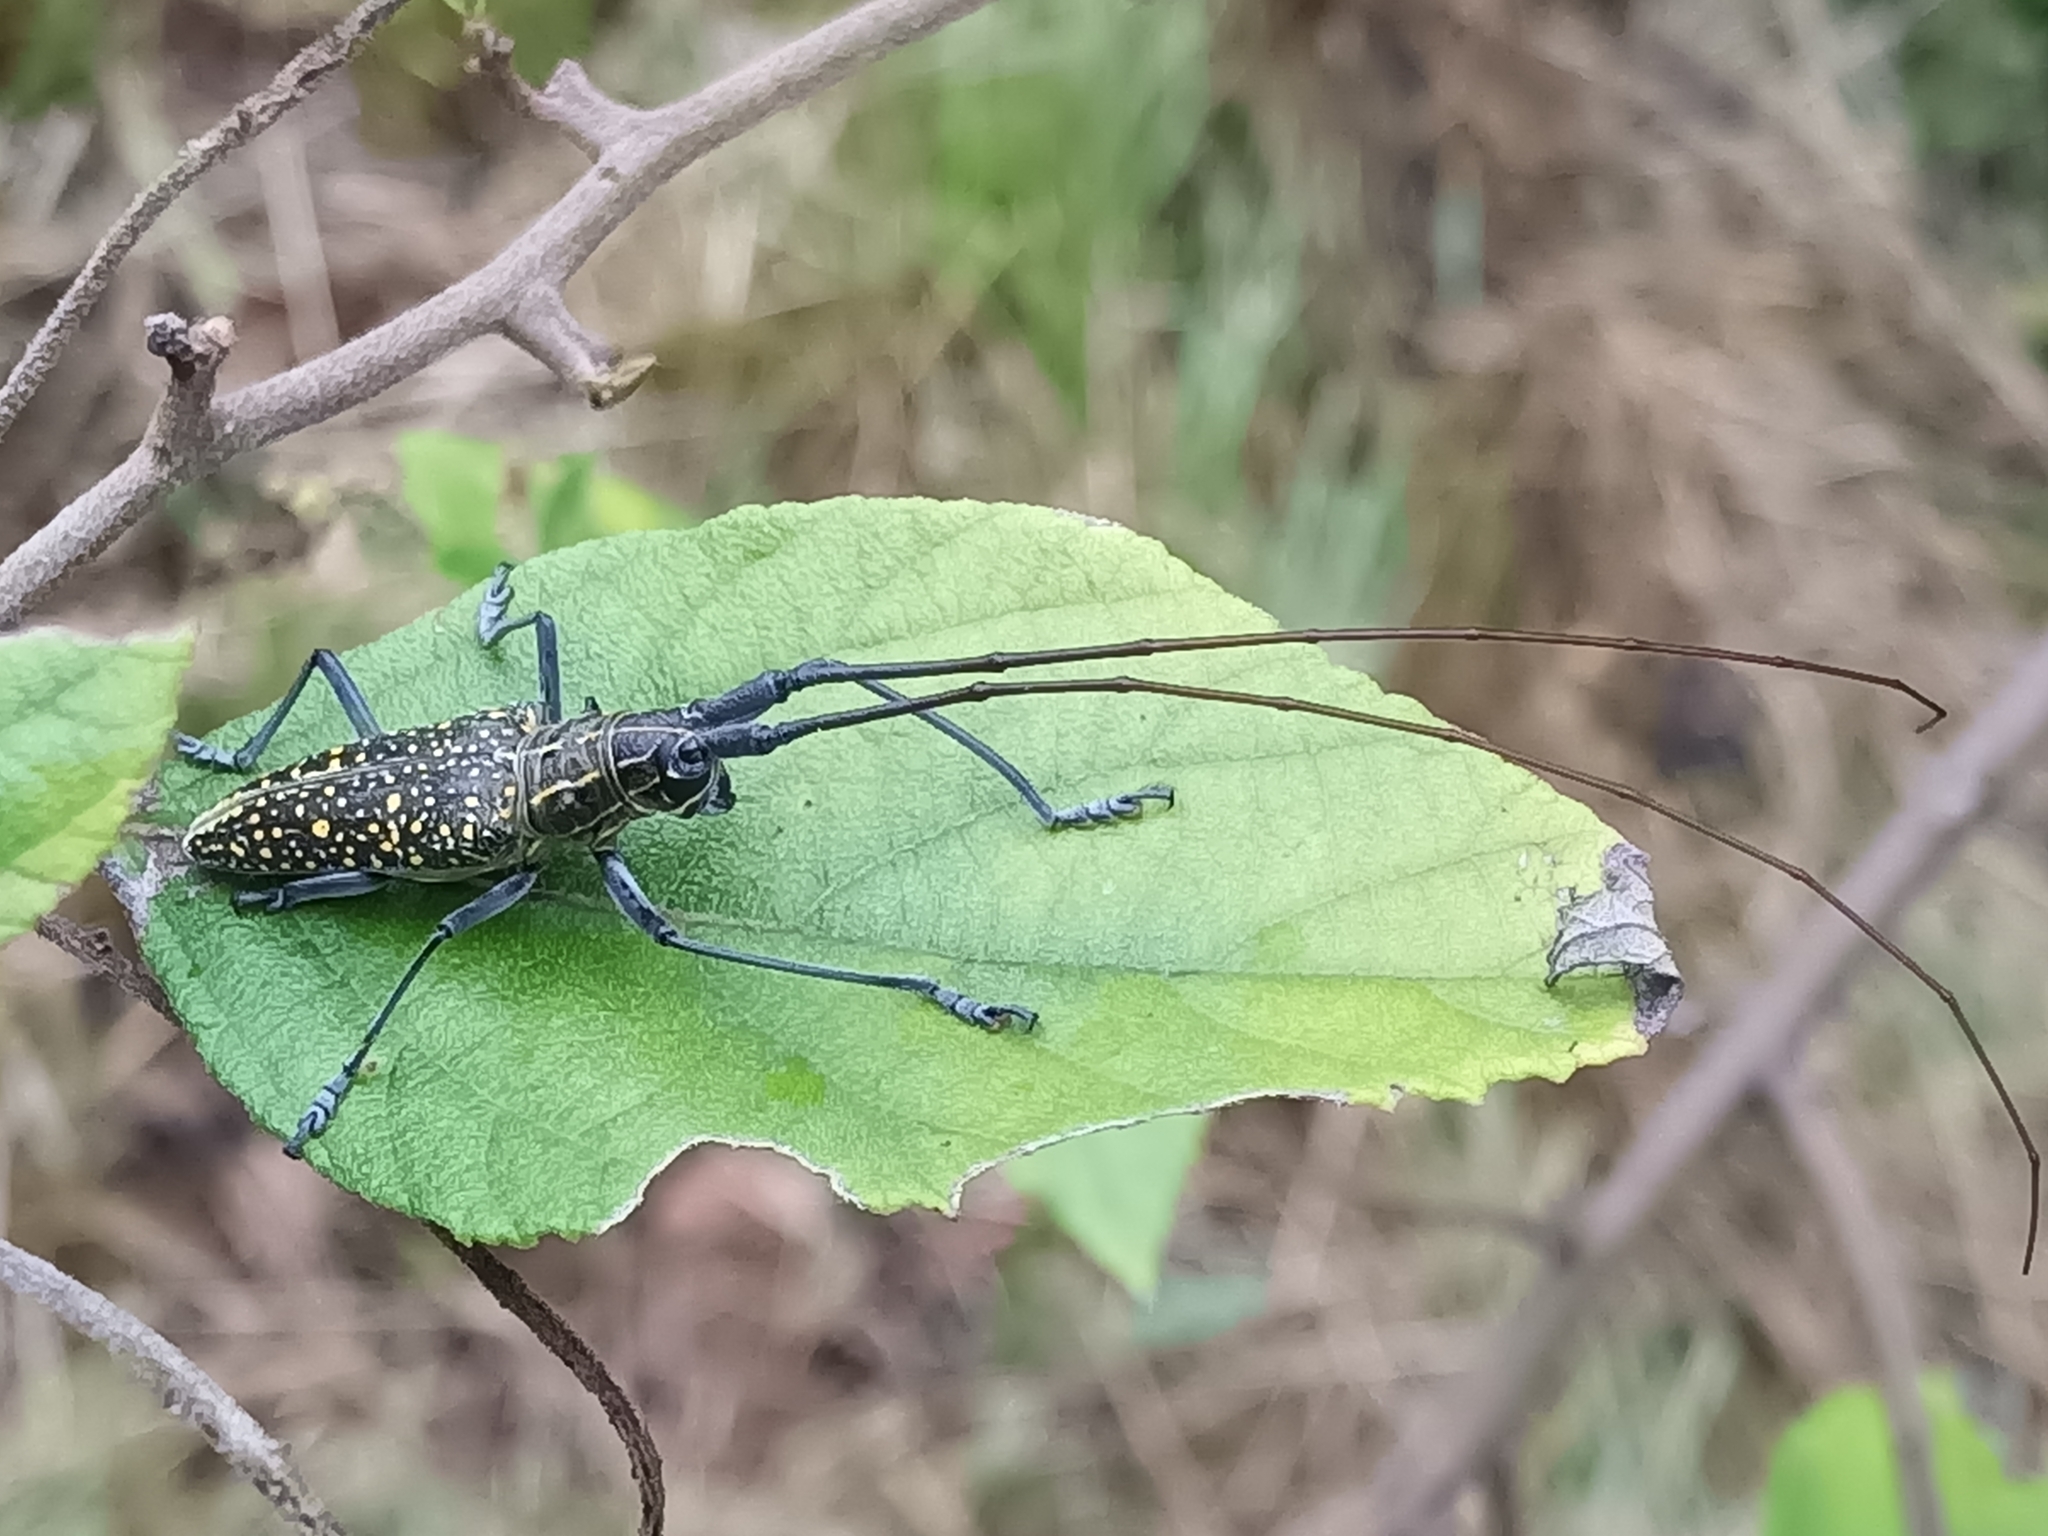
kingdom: Animalia
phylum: Arthropoda
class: Insecta
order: Coleoptera
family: Cerambycidae
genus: Taeniotes
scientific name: Taeniotes pulverulentus
